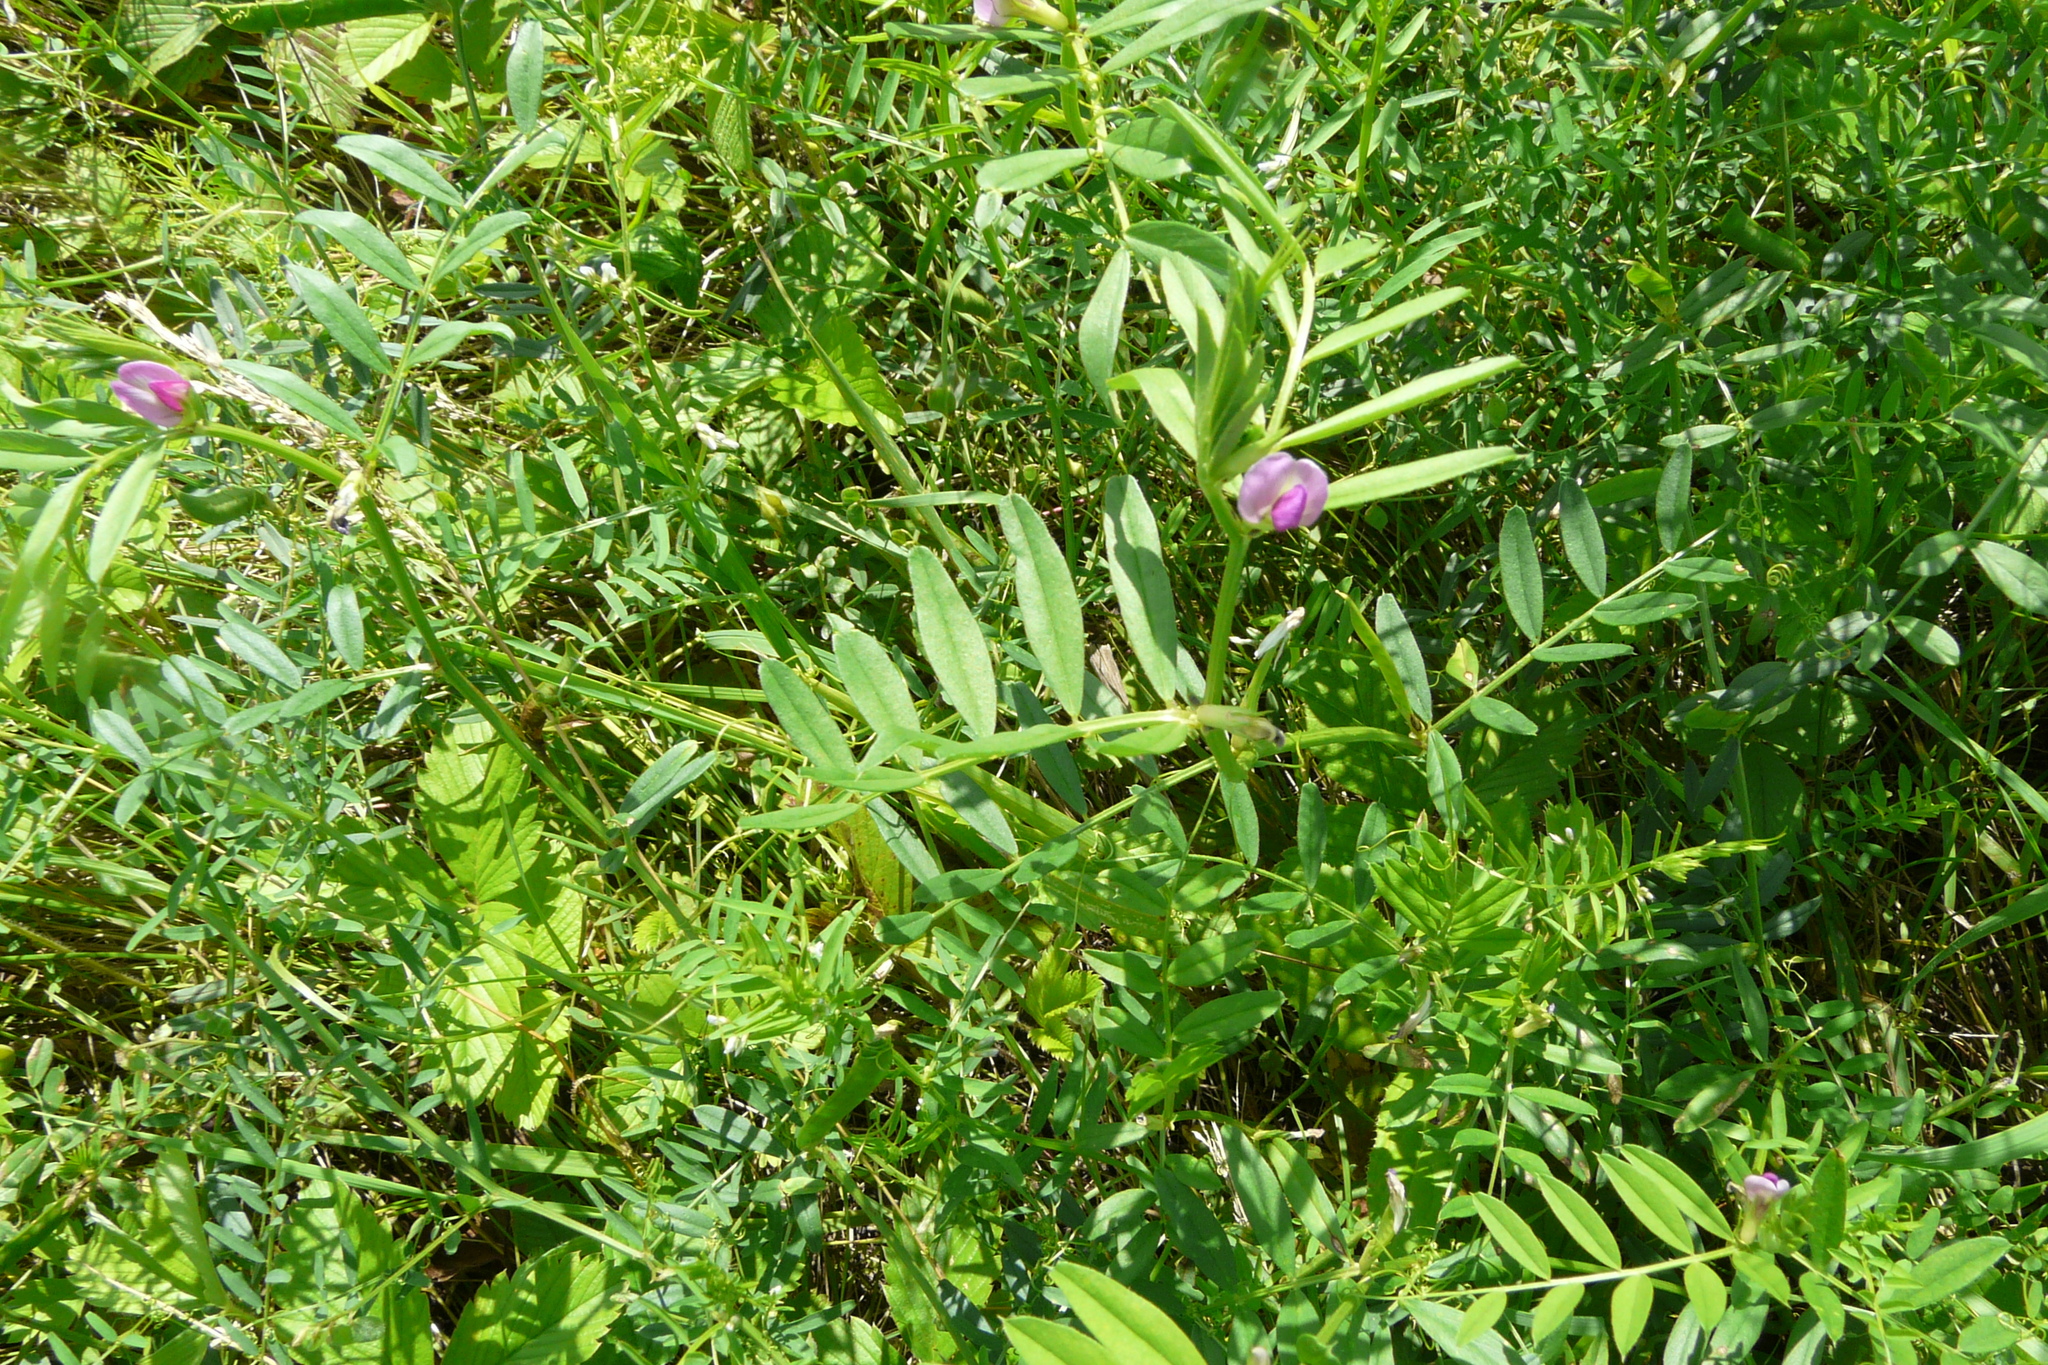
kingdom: Plantae
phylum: Tracheophyta
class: Magnoliopsida
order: Fabales
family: Fabaceae
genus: Vicia
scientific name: Vicia sativa
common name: Garden vetch
